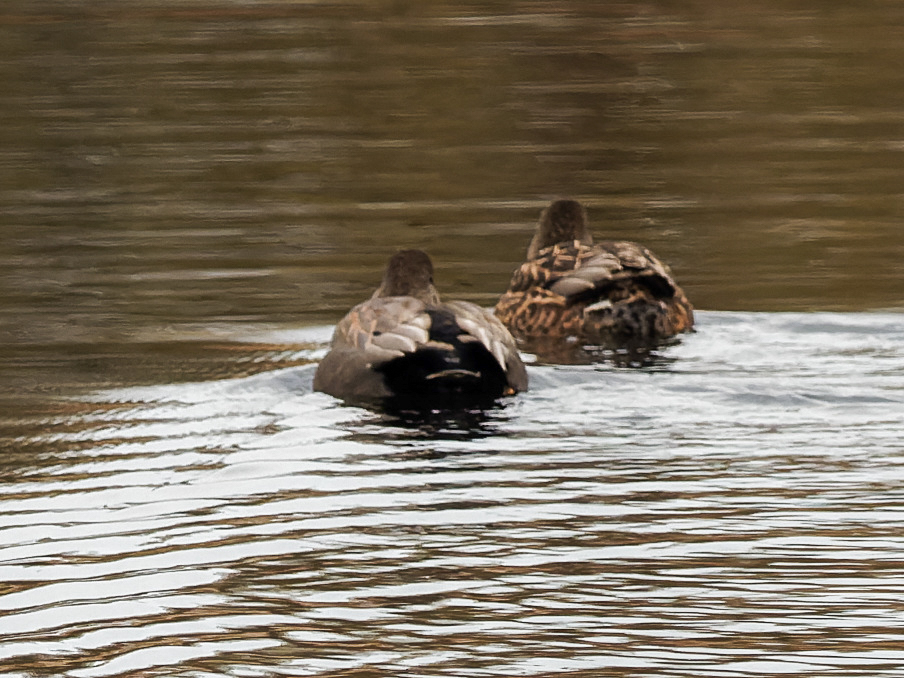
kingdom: Animalia
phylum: Chordata
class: Aves
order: Anseriformes
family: Anatidae
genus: Mareca
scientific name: Mareca strepera
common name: Gadwall
